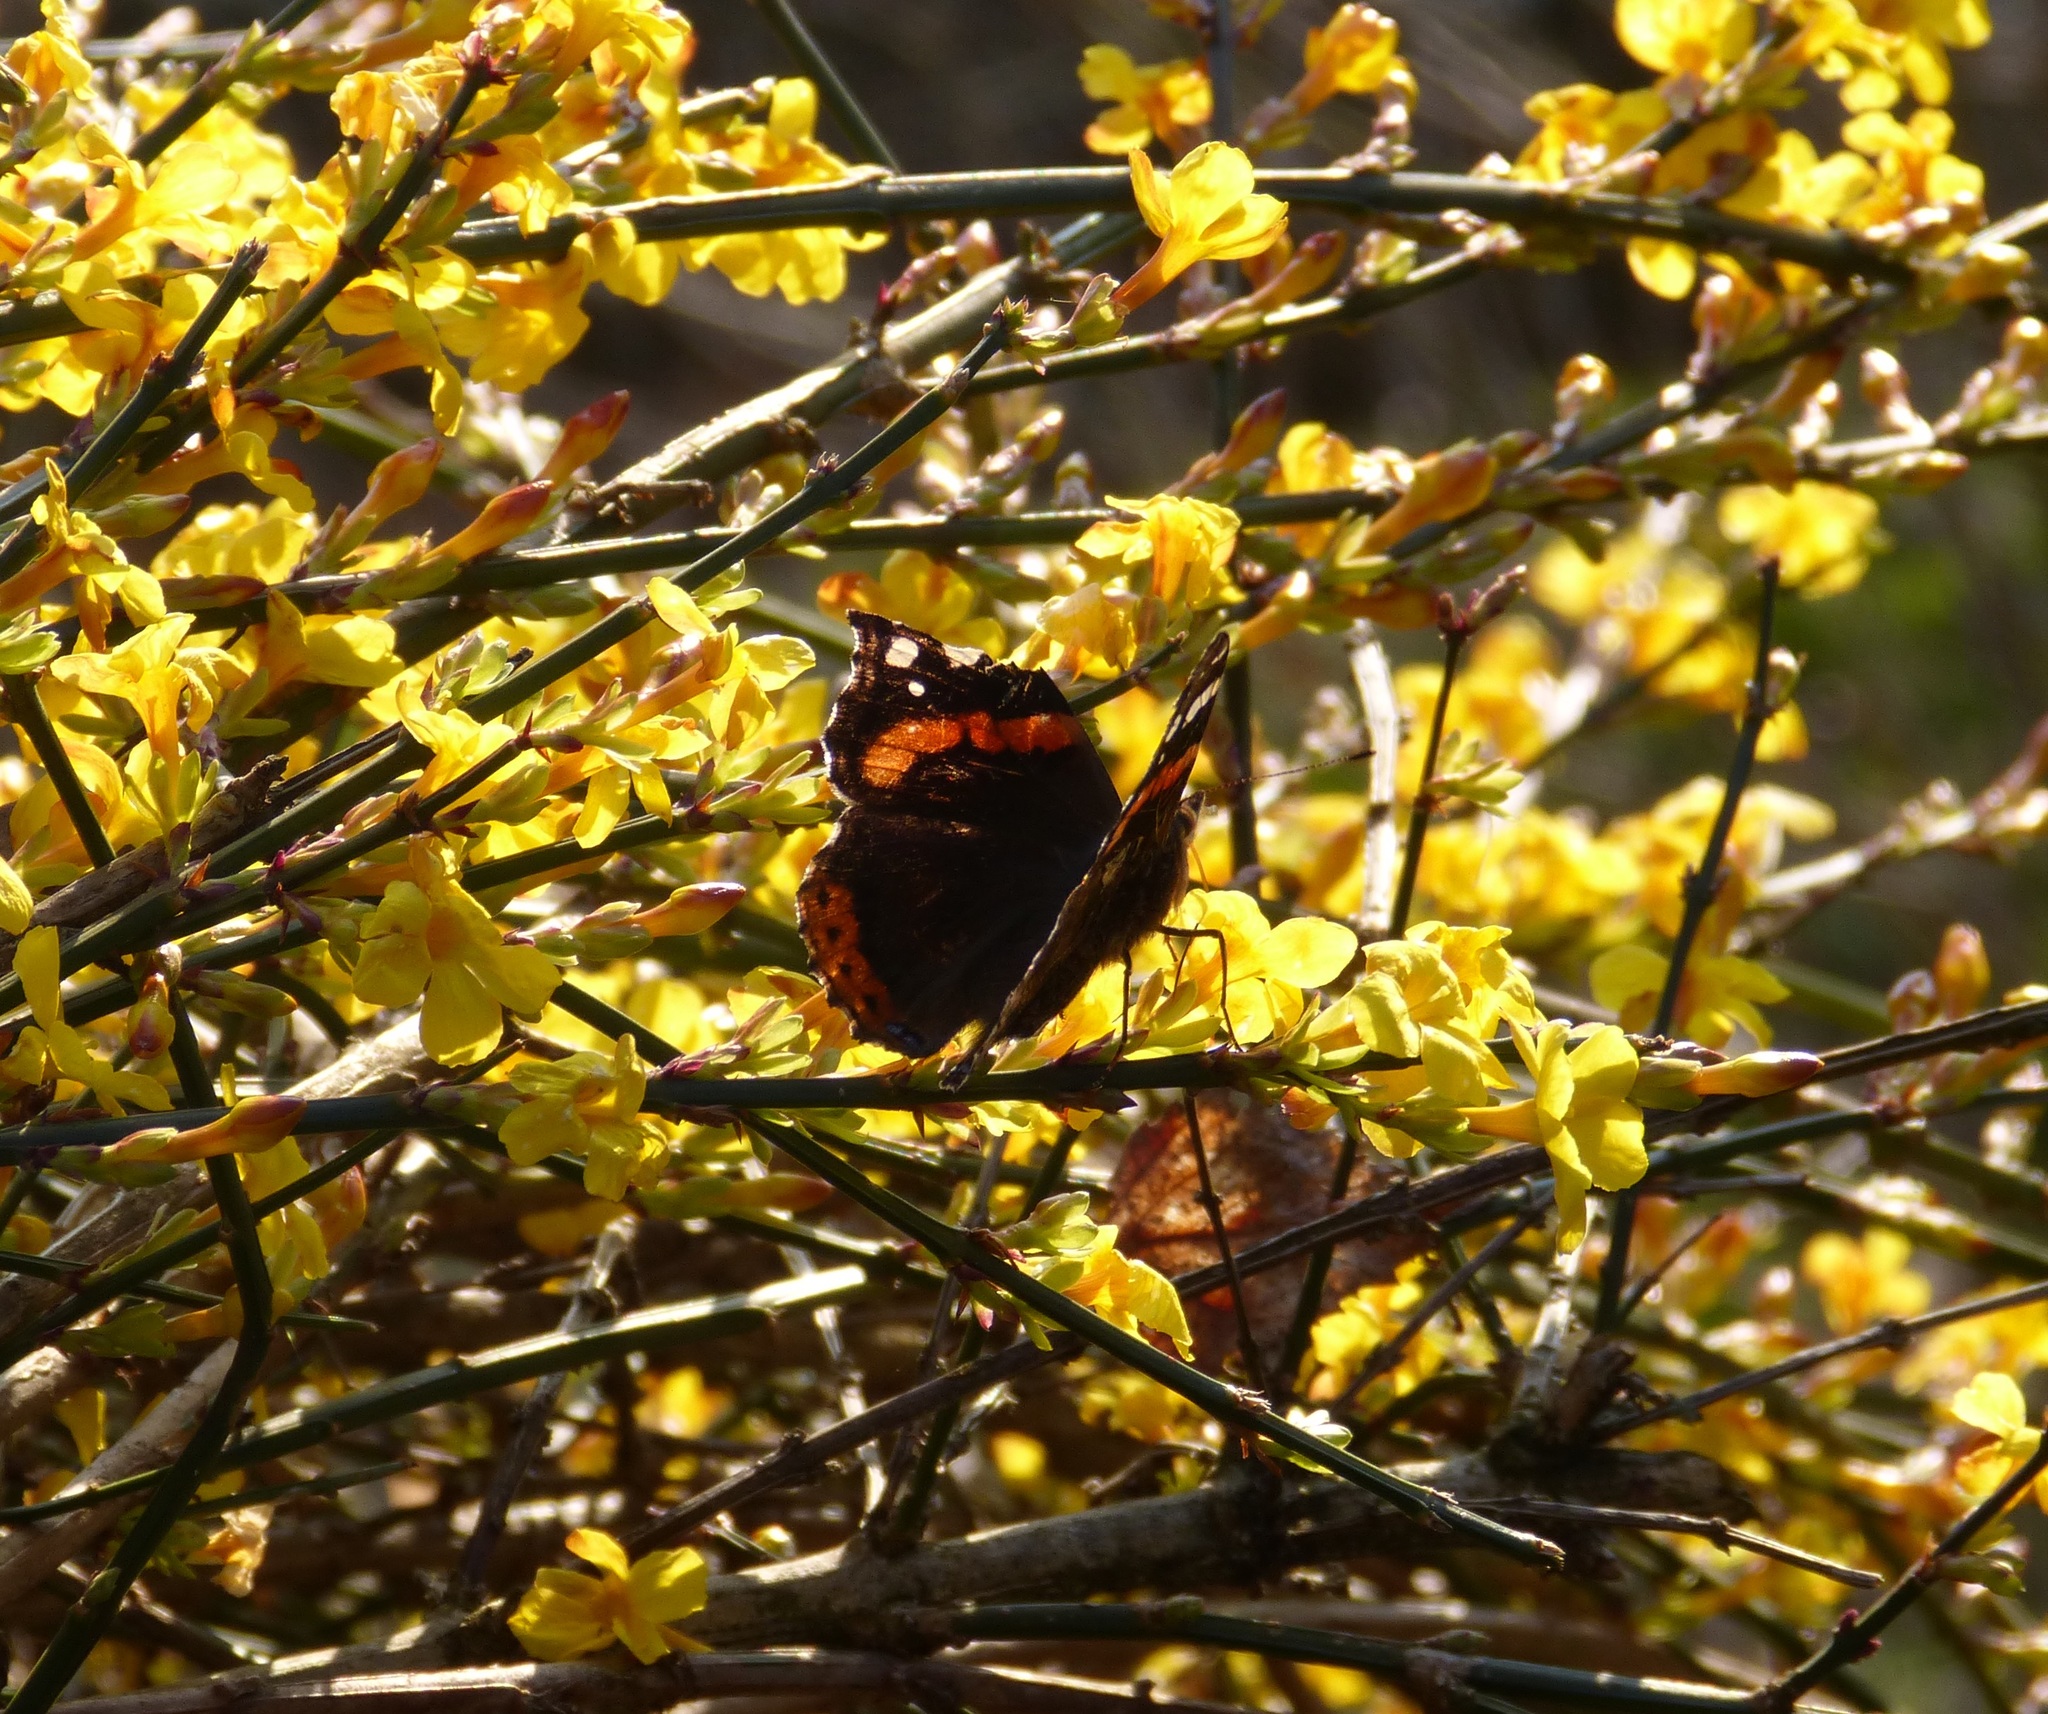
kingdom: Animalia
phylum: Arthropoda
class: Insecta
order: Lepidoptera
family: Nymphalidae
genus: Vanessa
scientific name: Vanessa atalanta
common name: Red admiral
